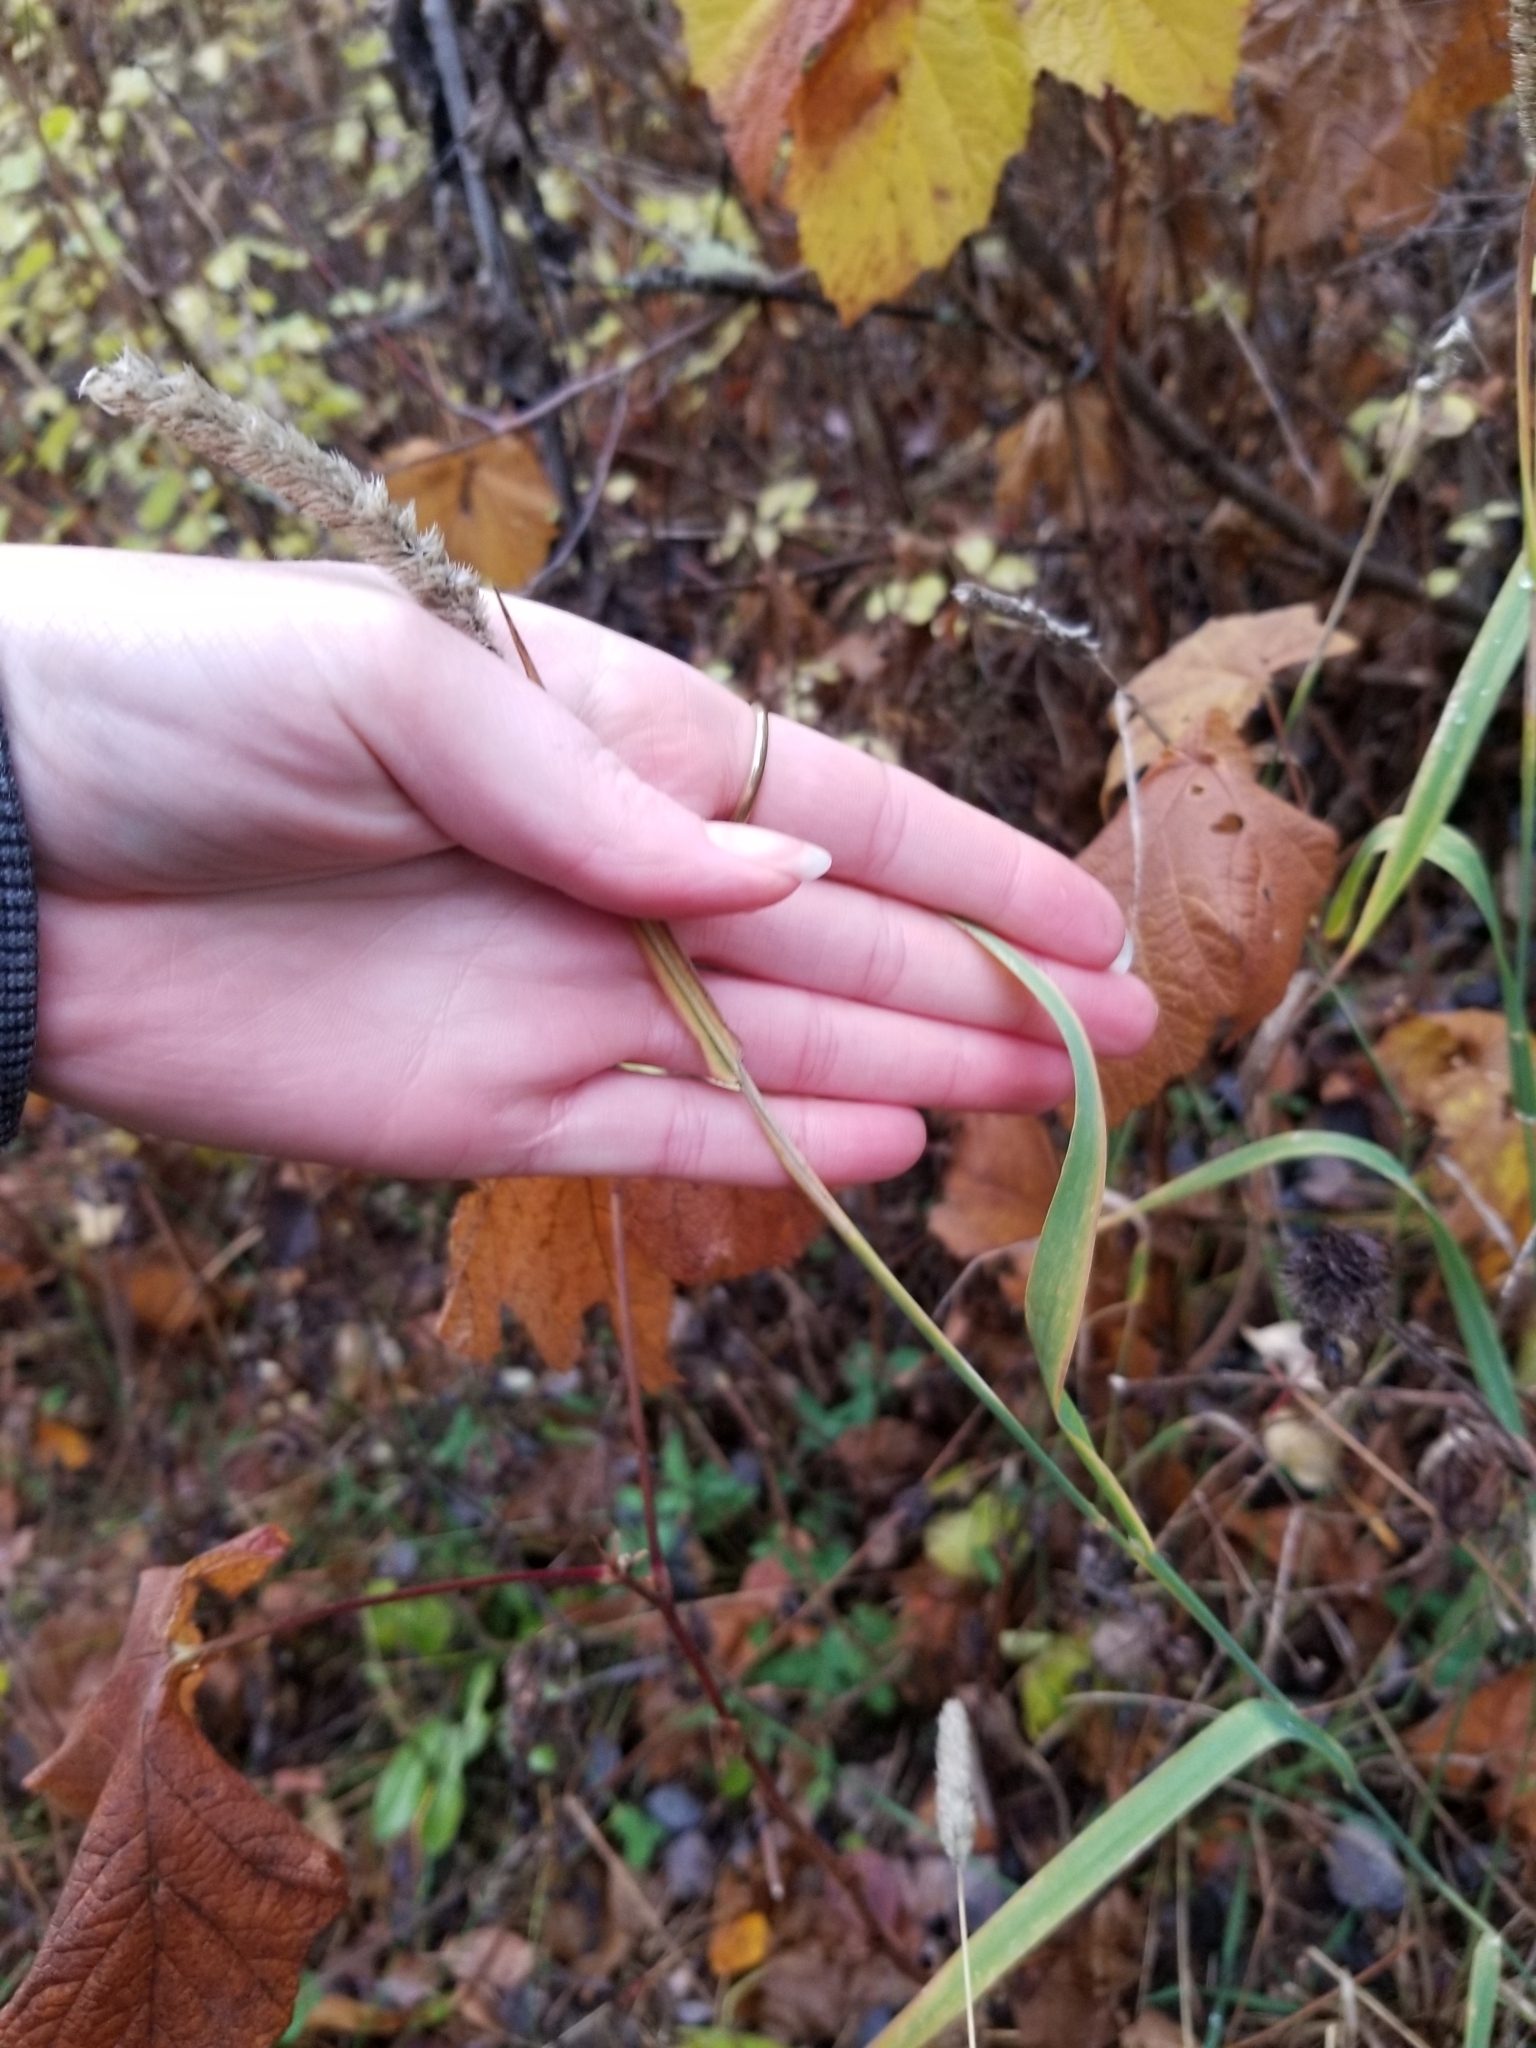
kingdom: Plantae
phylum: Tracheophyta
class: Liliopsida
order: Poales
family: Poaceae
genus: Phleum
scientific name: Phleum pratense
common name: Timothy grass
